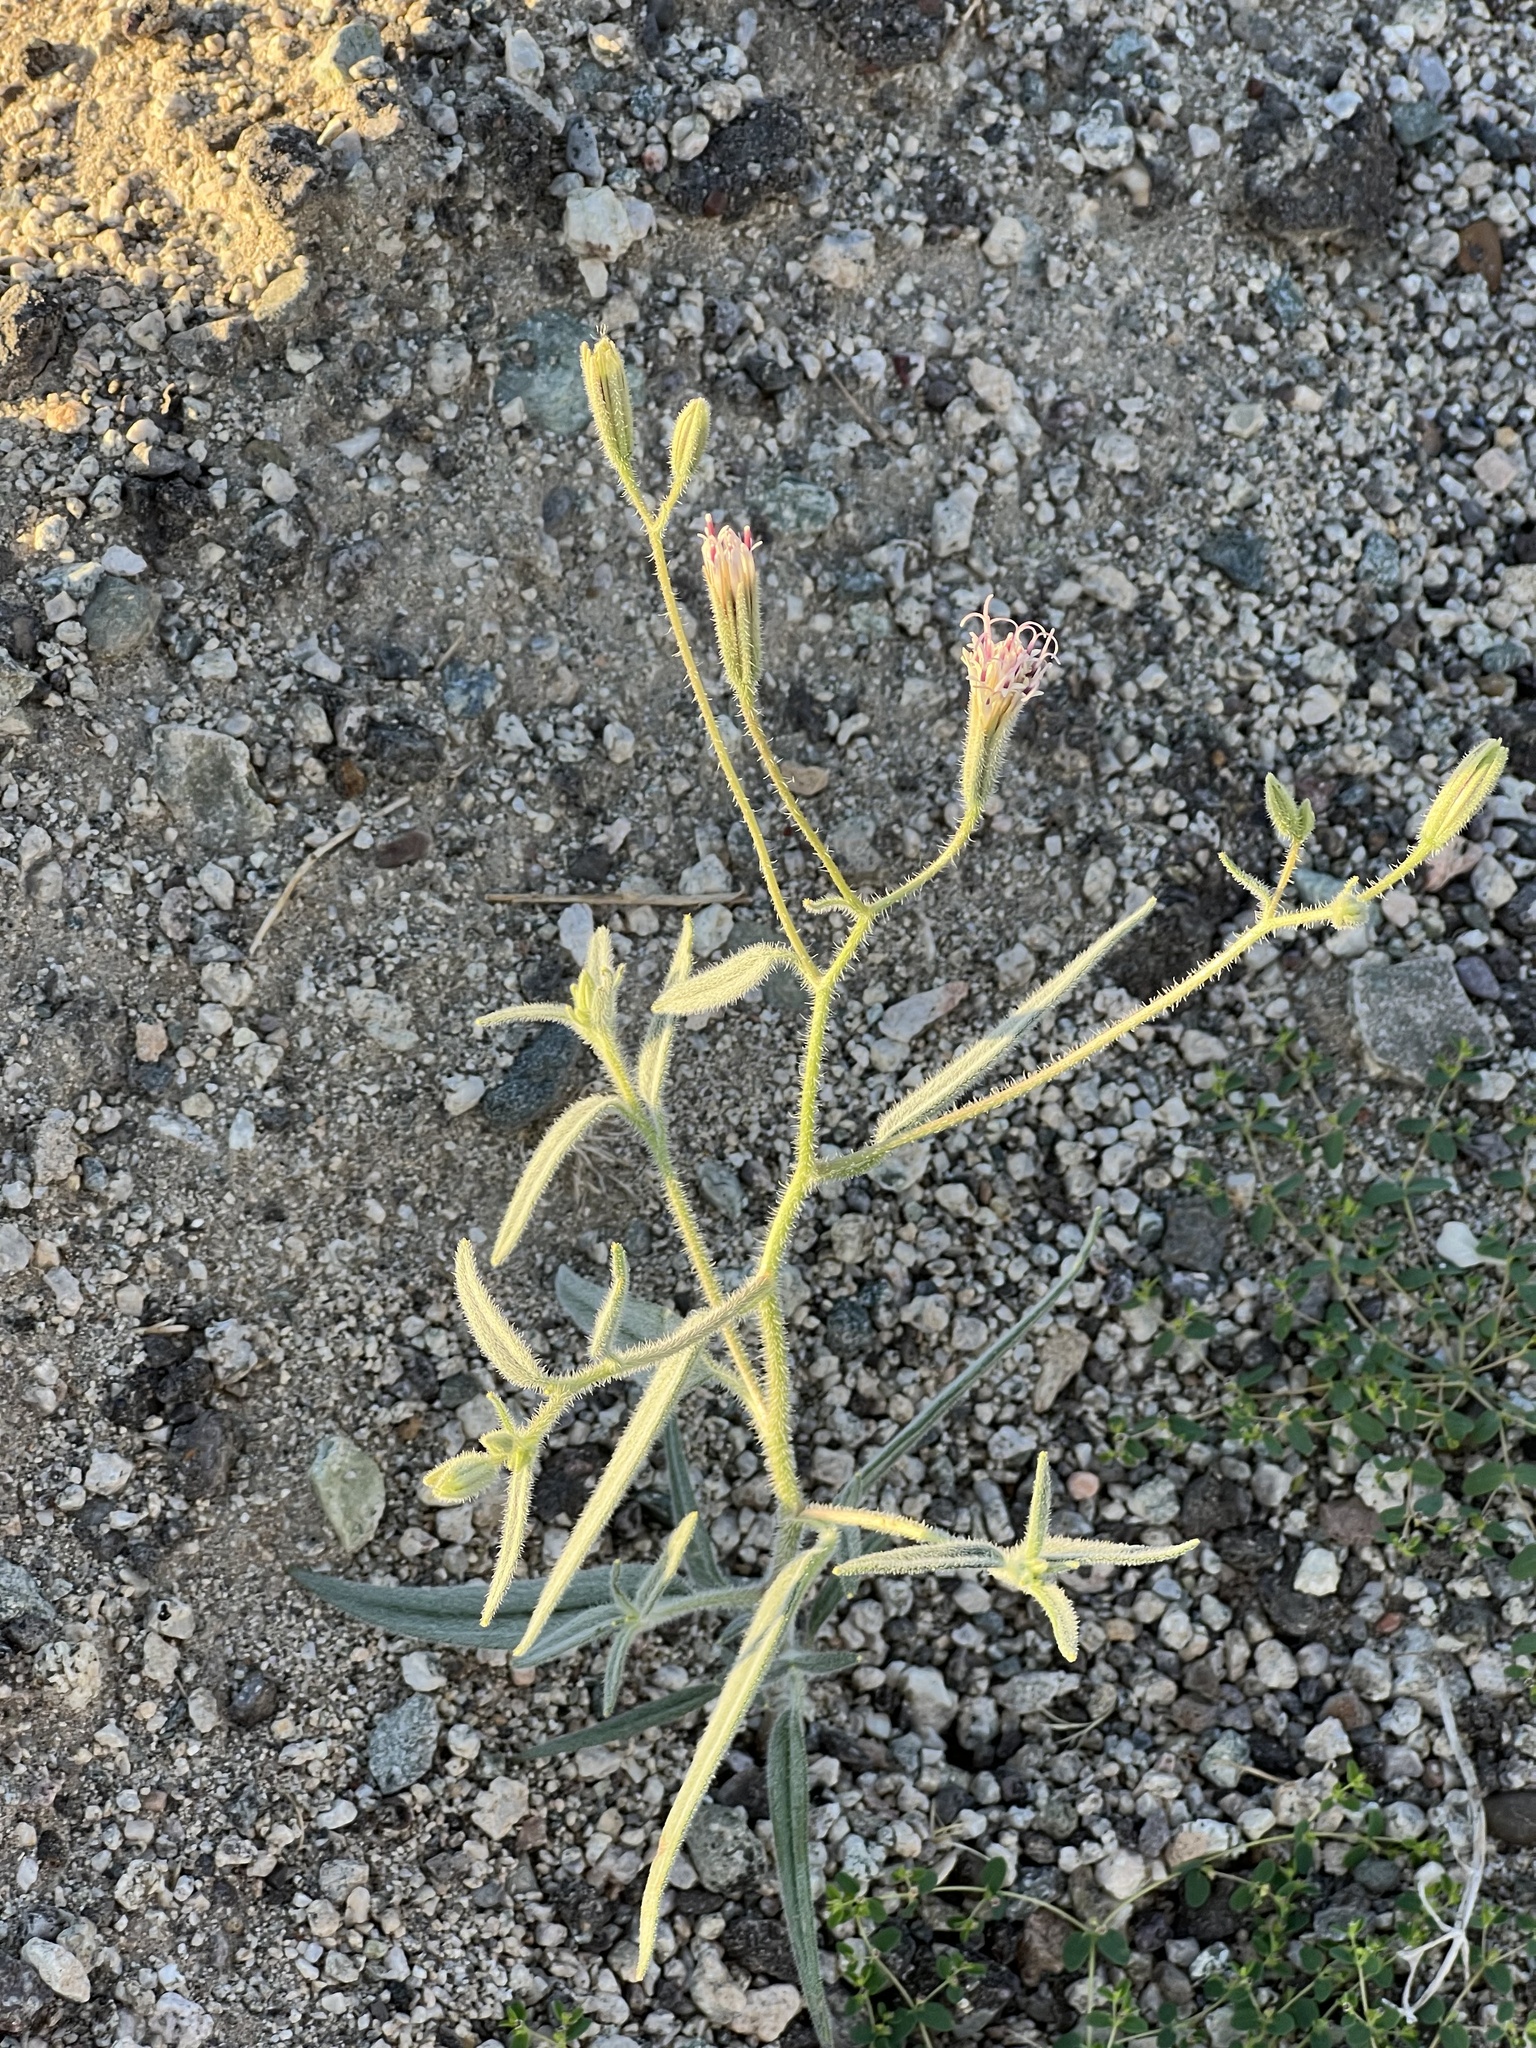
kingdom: Plantae
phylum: Tracheophyta
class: Magnoliopsida
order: Asterales
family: Asteraceae
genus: Palafoxia
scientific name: Palafoxia arida
